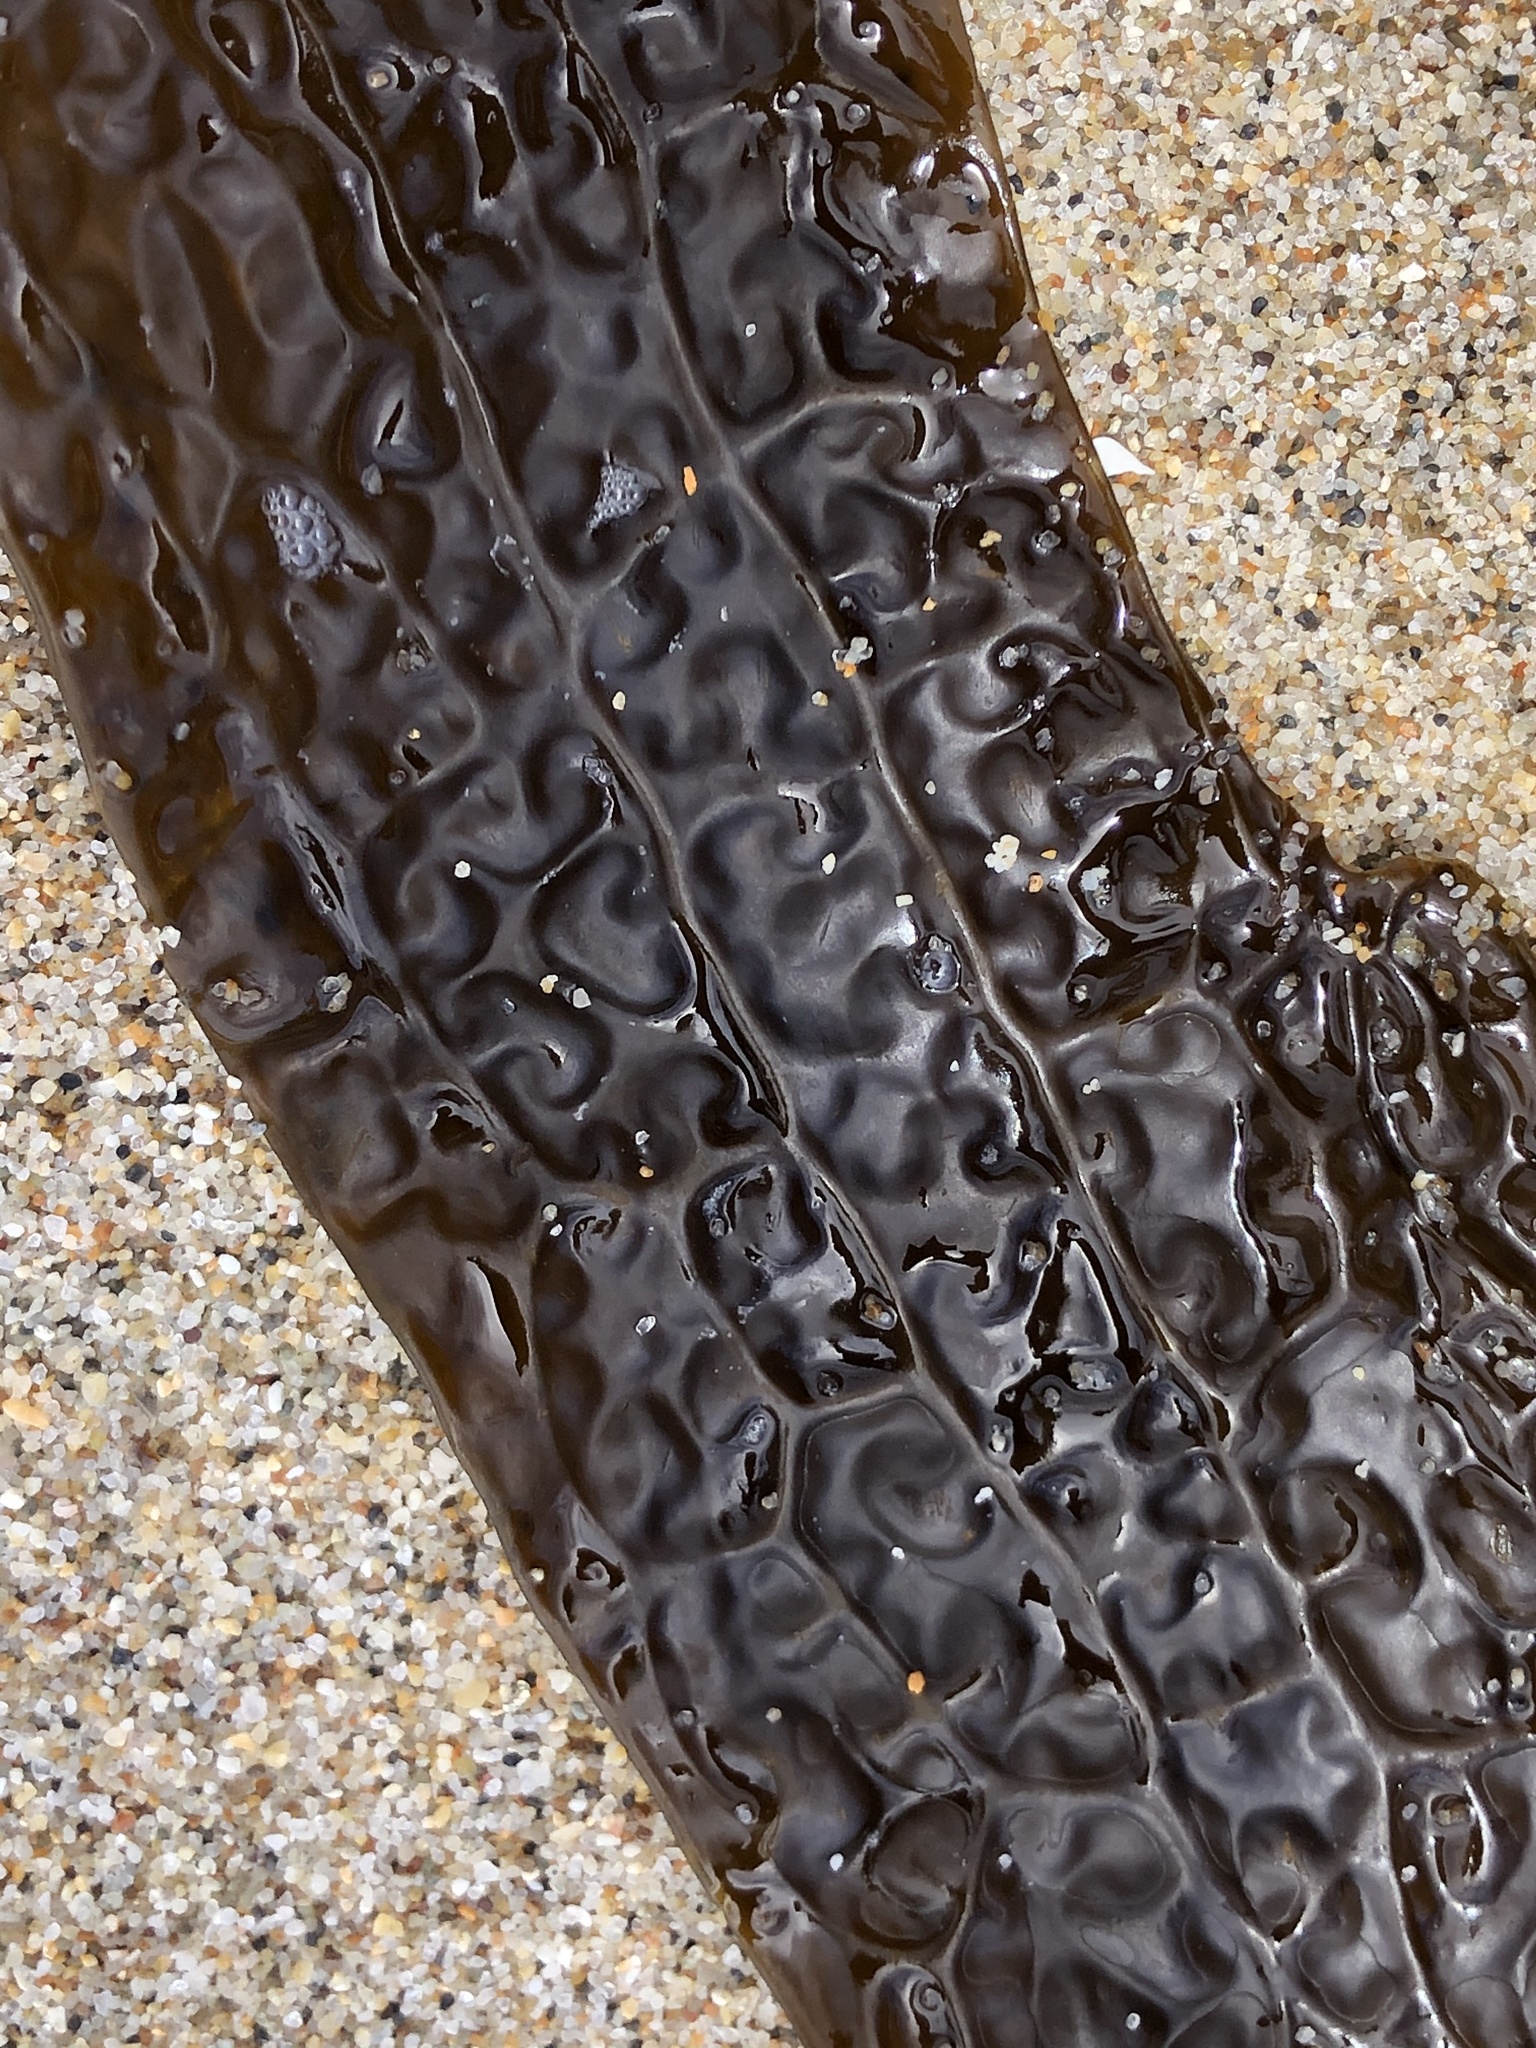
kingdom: Chromista
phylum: Ochrophyta
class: Phaeophyceae
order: Laminariales
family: Costariaceae
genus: Dictyoneurum
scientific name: Dictyoneurum californicum
